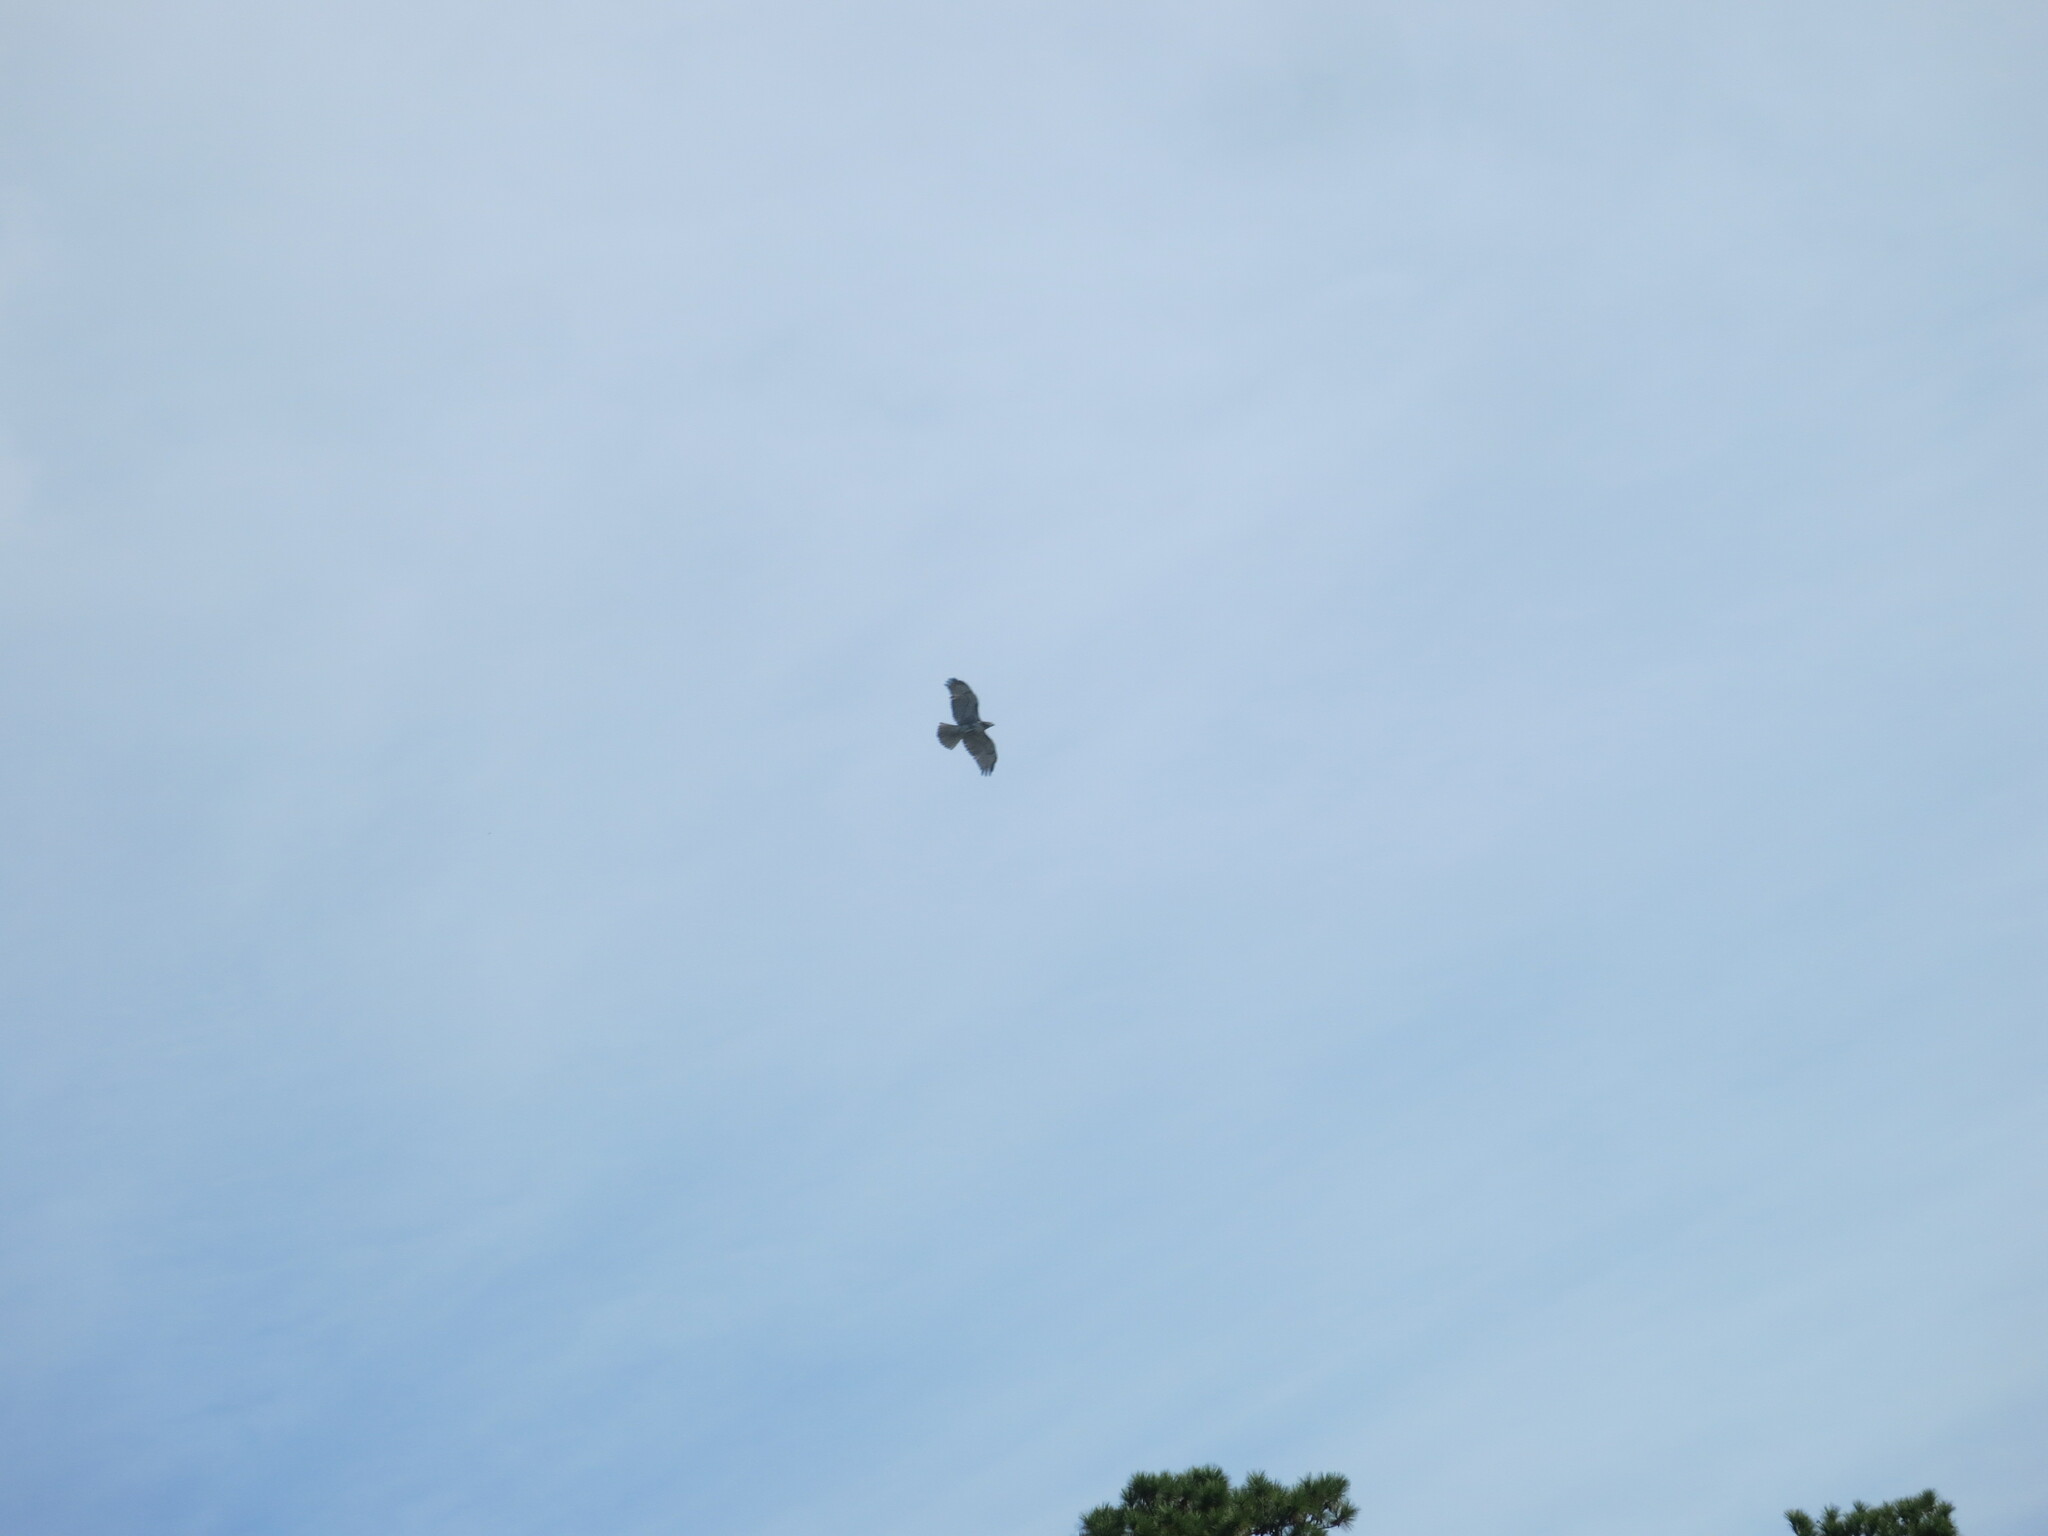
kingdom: Animalia
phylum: Chordata
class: Aves
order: Accipitriformes
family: Accipitridae
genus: Buteo
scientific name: Buteo jamaicensis
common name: Red-tailed hawk
